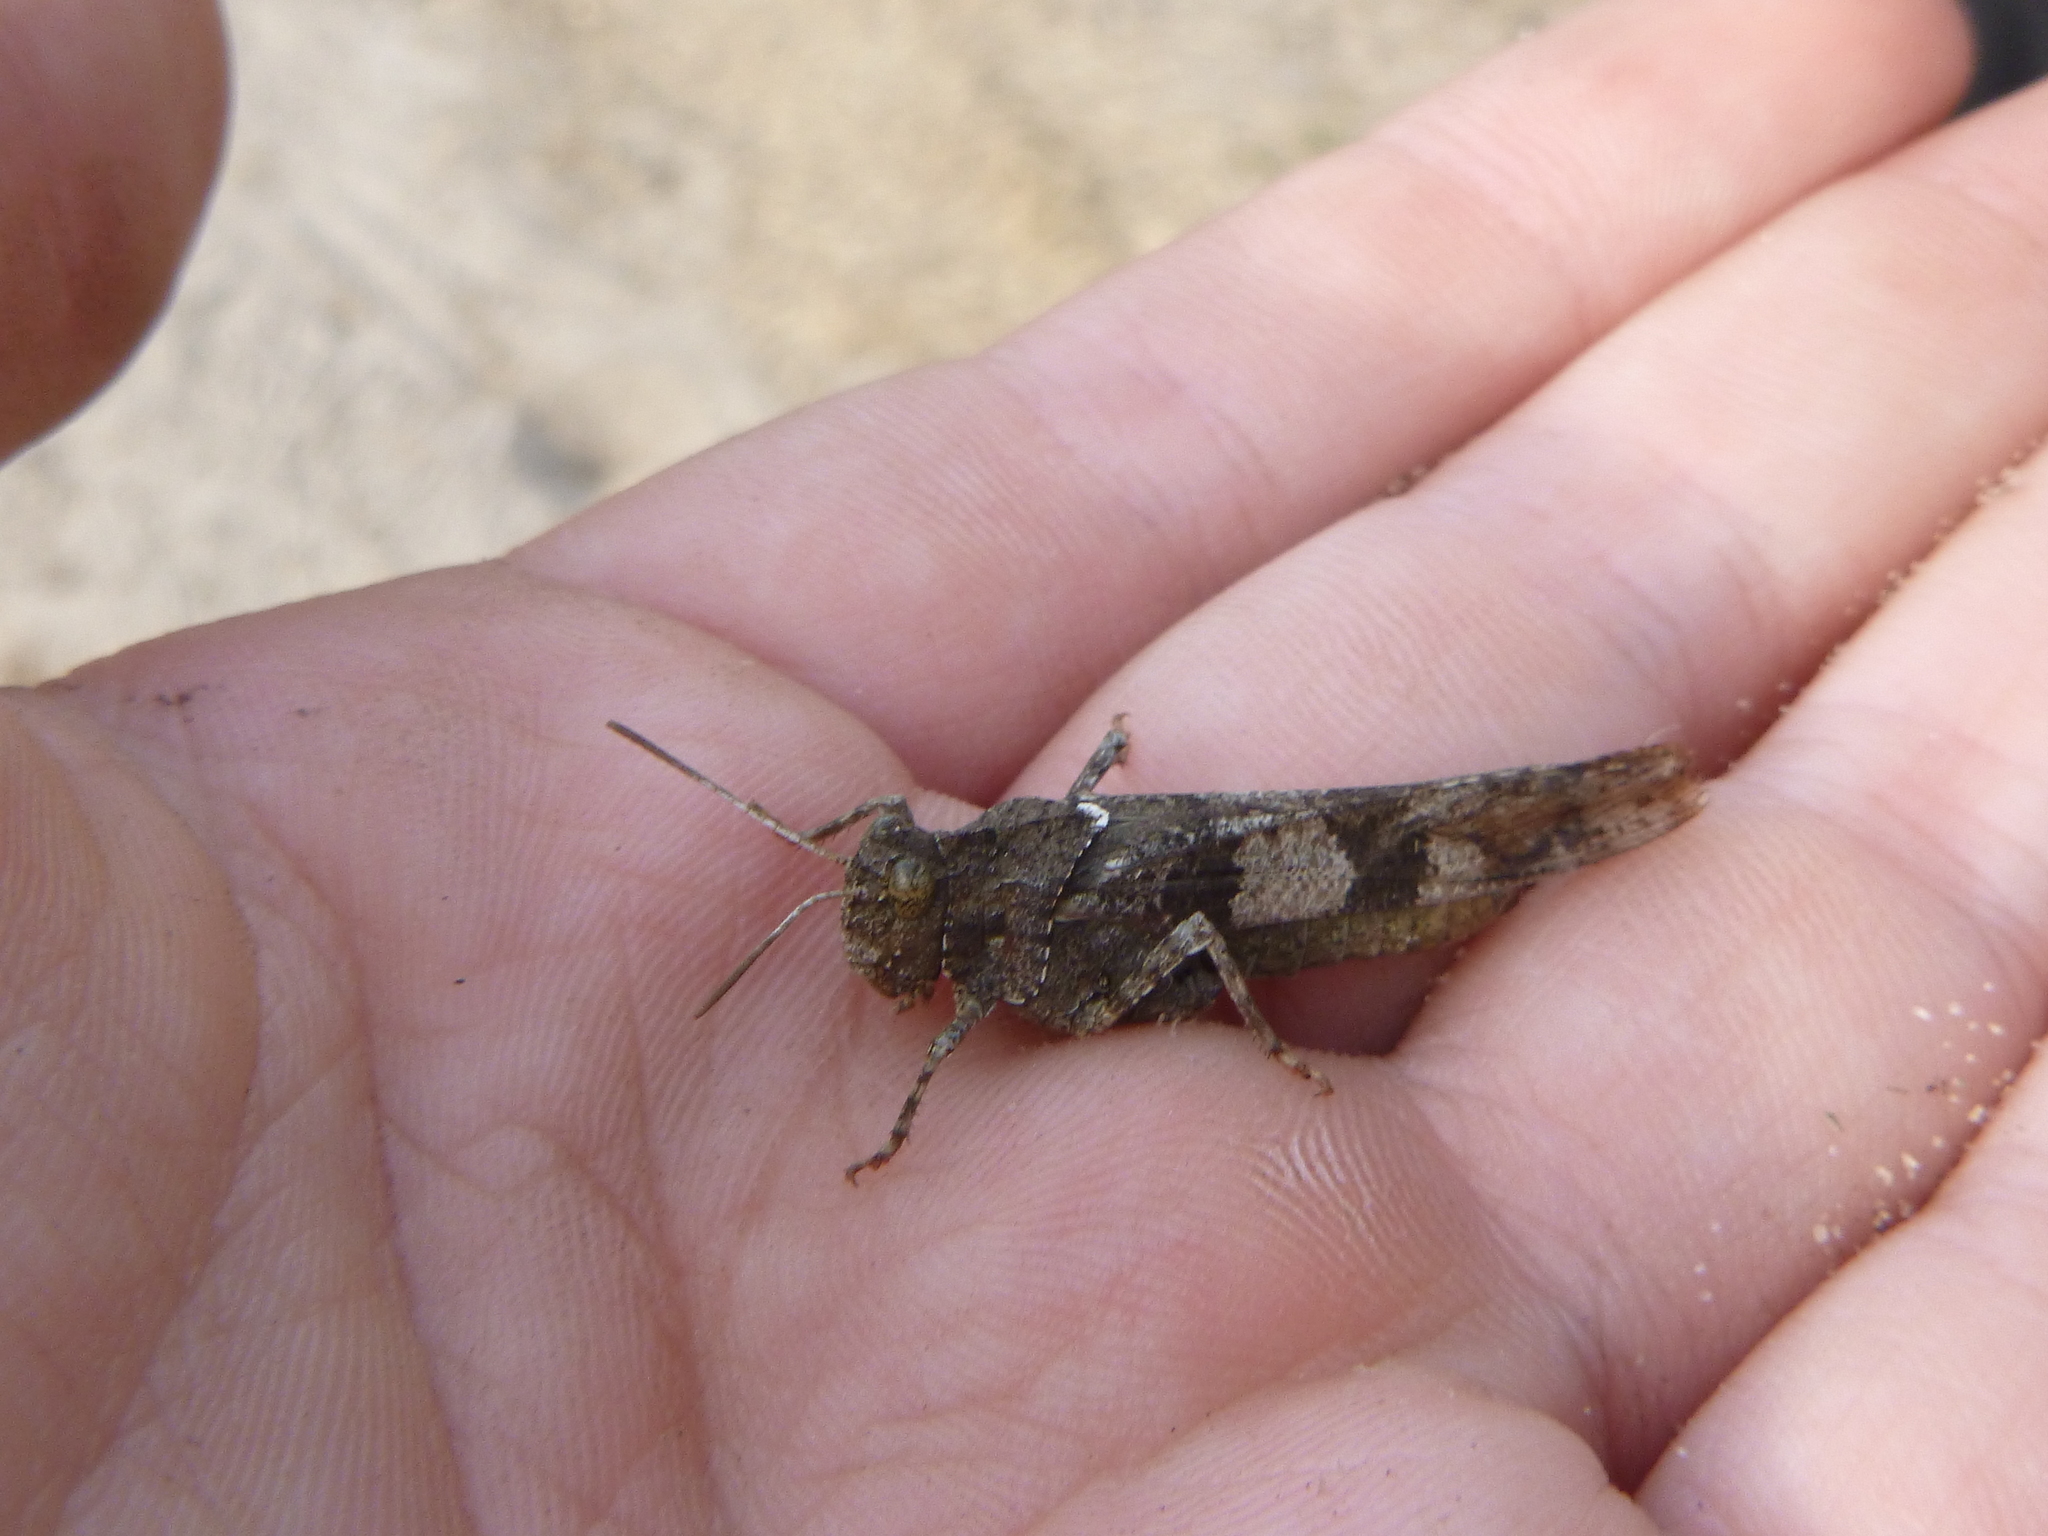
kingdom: Animalia
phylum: Arthropoda
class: Insecta
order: Orthoptera
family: Acrididae
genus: Oedipoda
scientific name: Oedipoda caerulescens
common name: Blue-winged grasshopper
